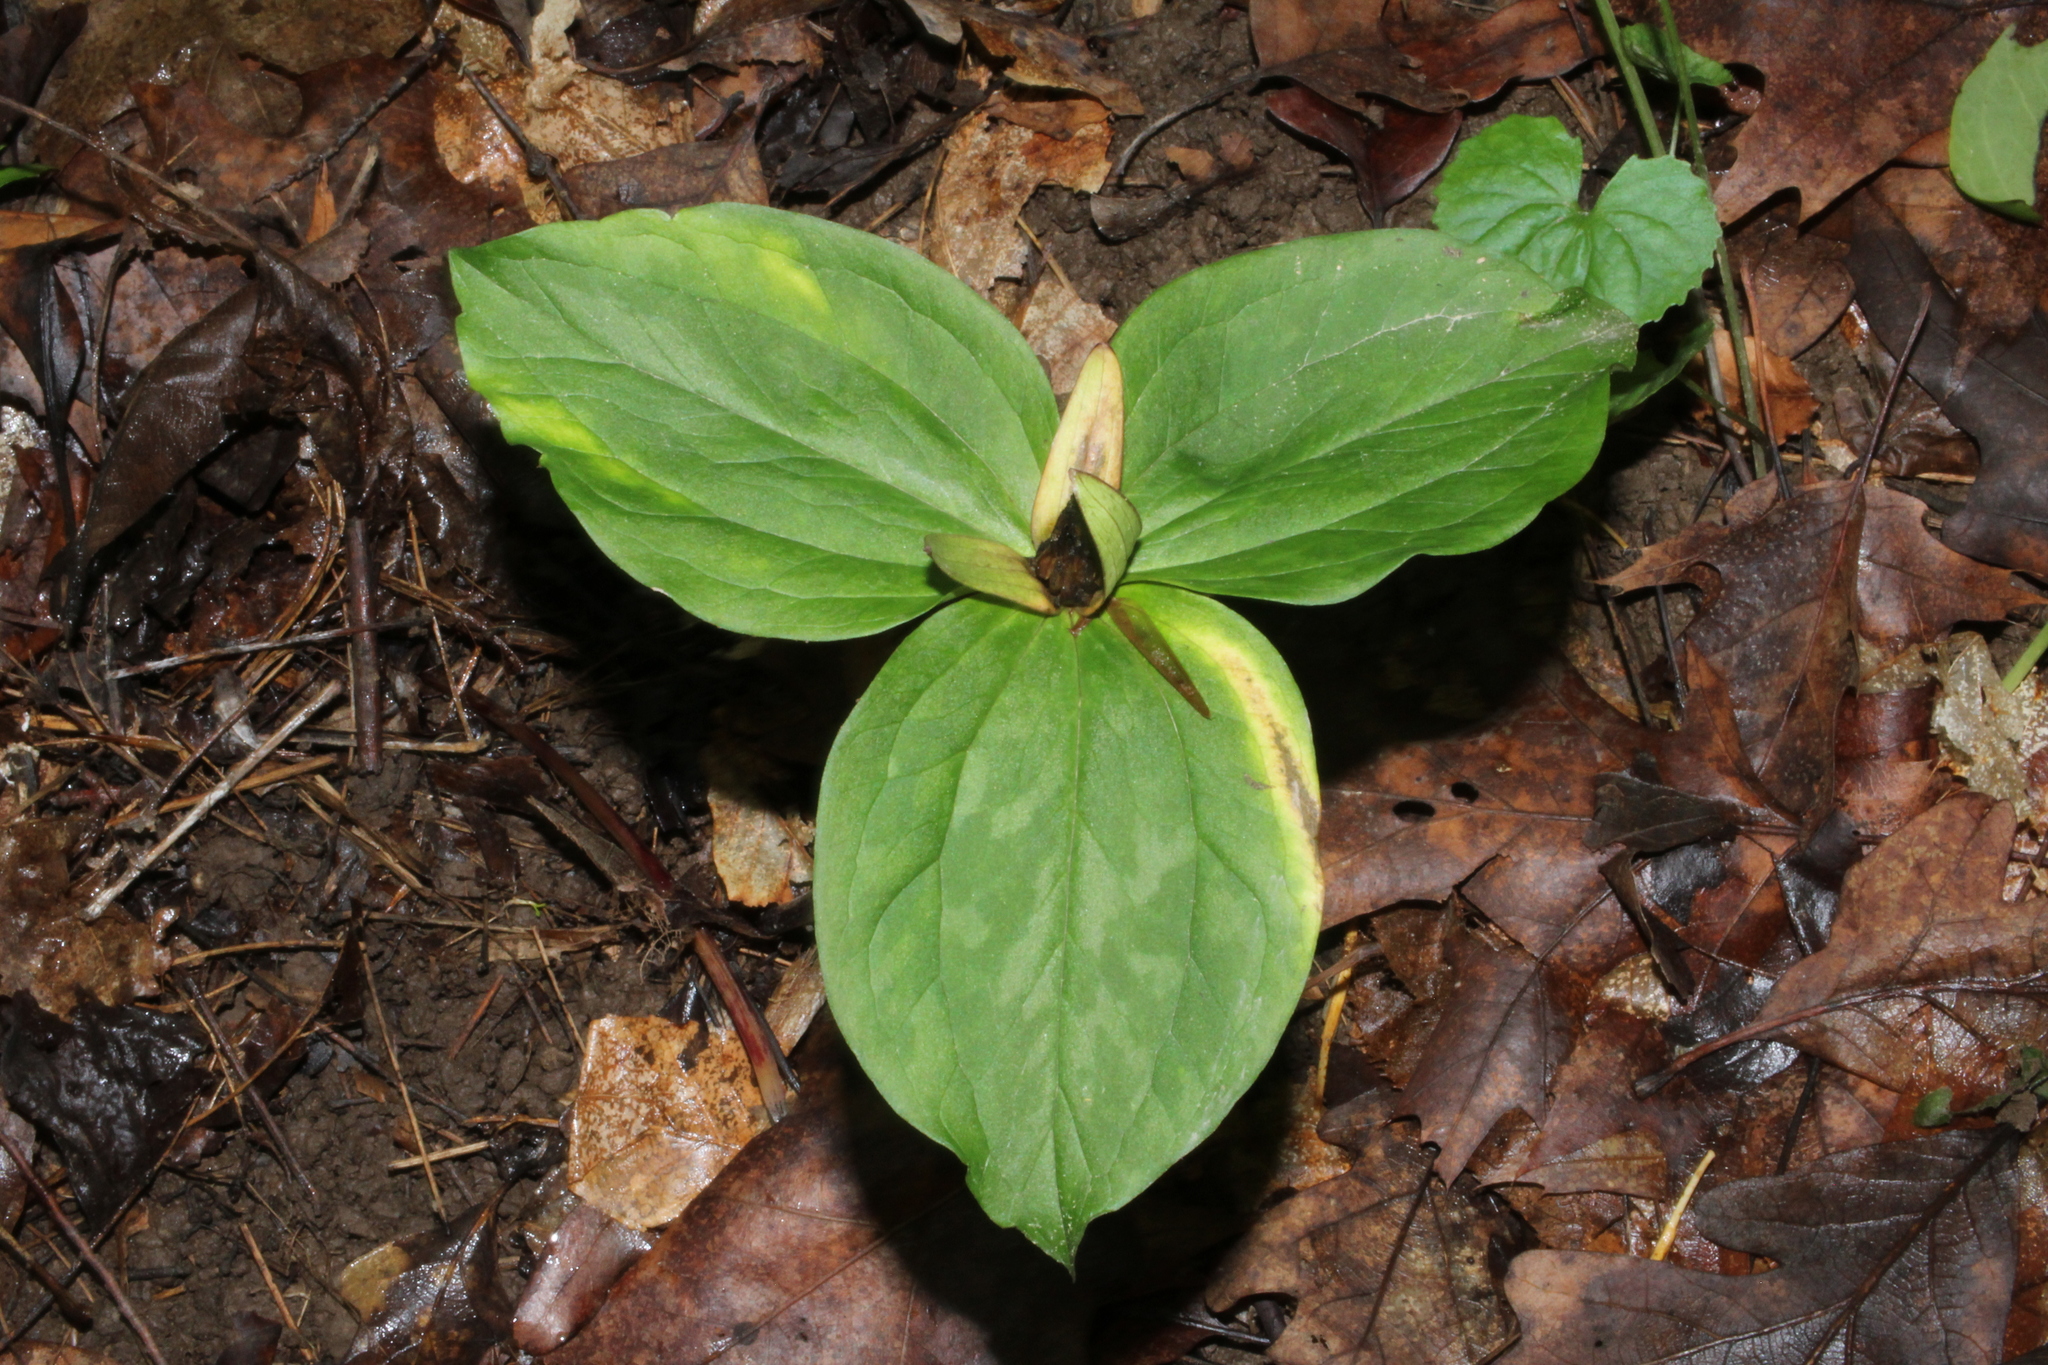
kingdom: Plantae
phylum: Tracheophyta
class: Liliopsida
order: Liliales
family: Melanthiaceae
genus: Trillium
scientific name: Trillium sessile
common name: Sessile trillium
